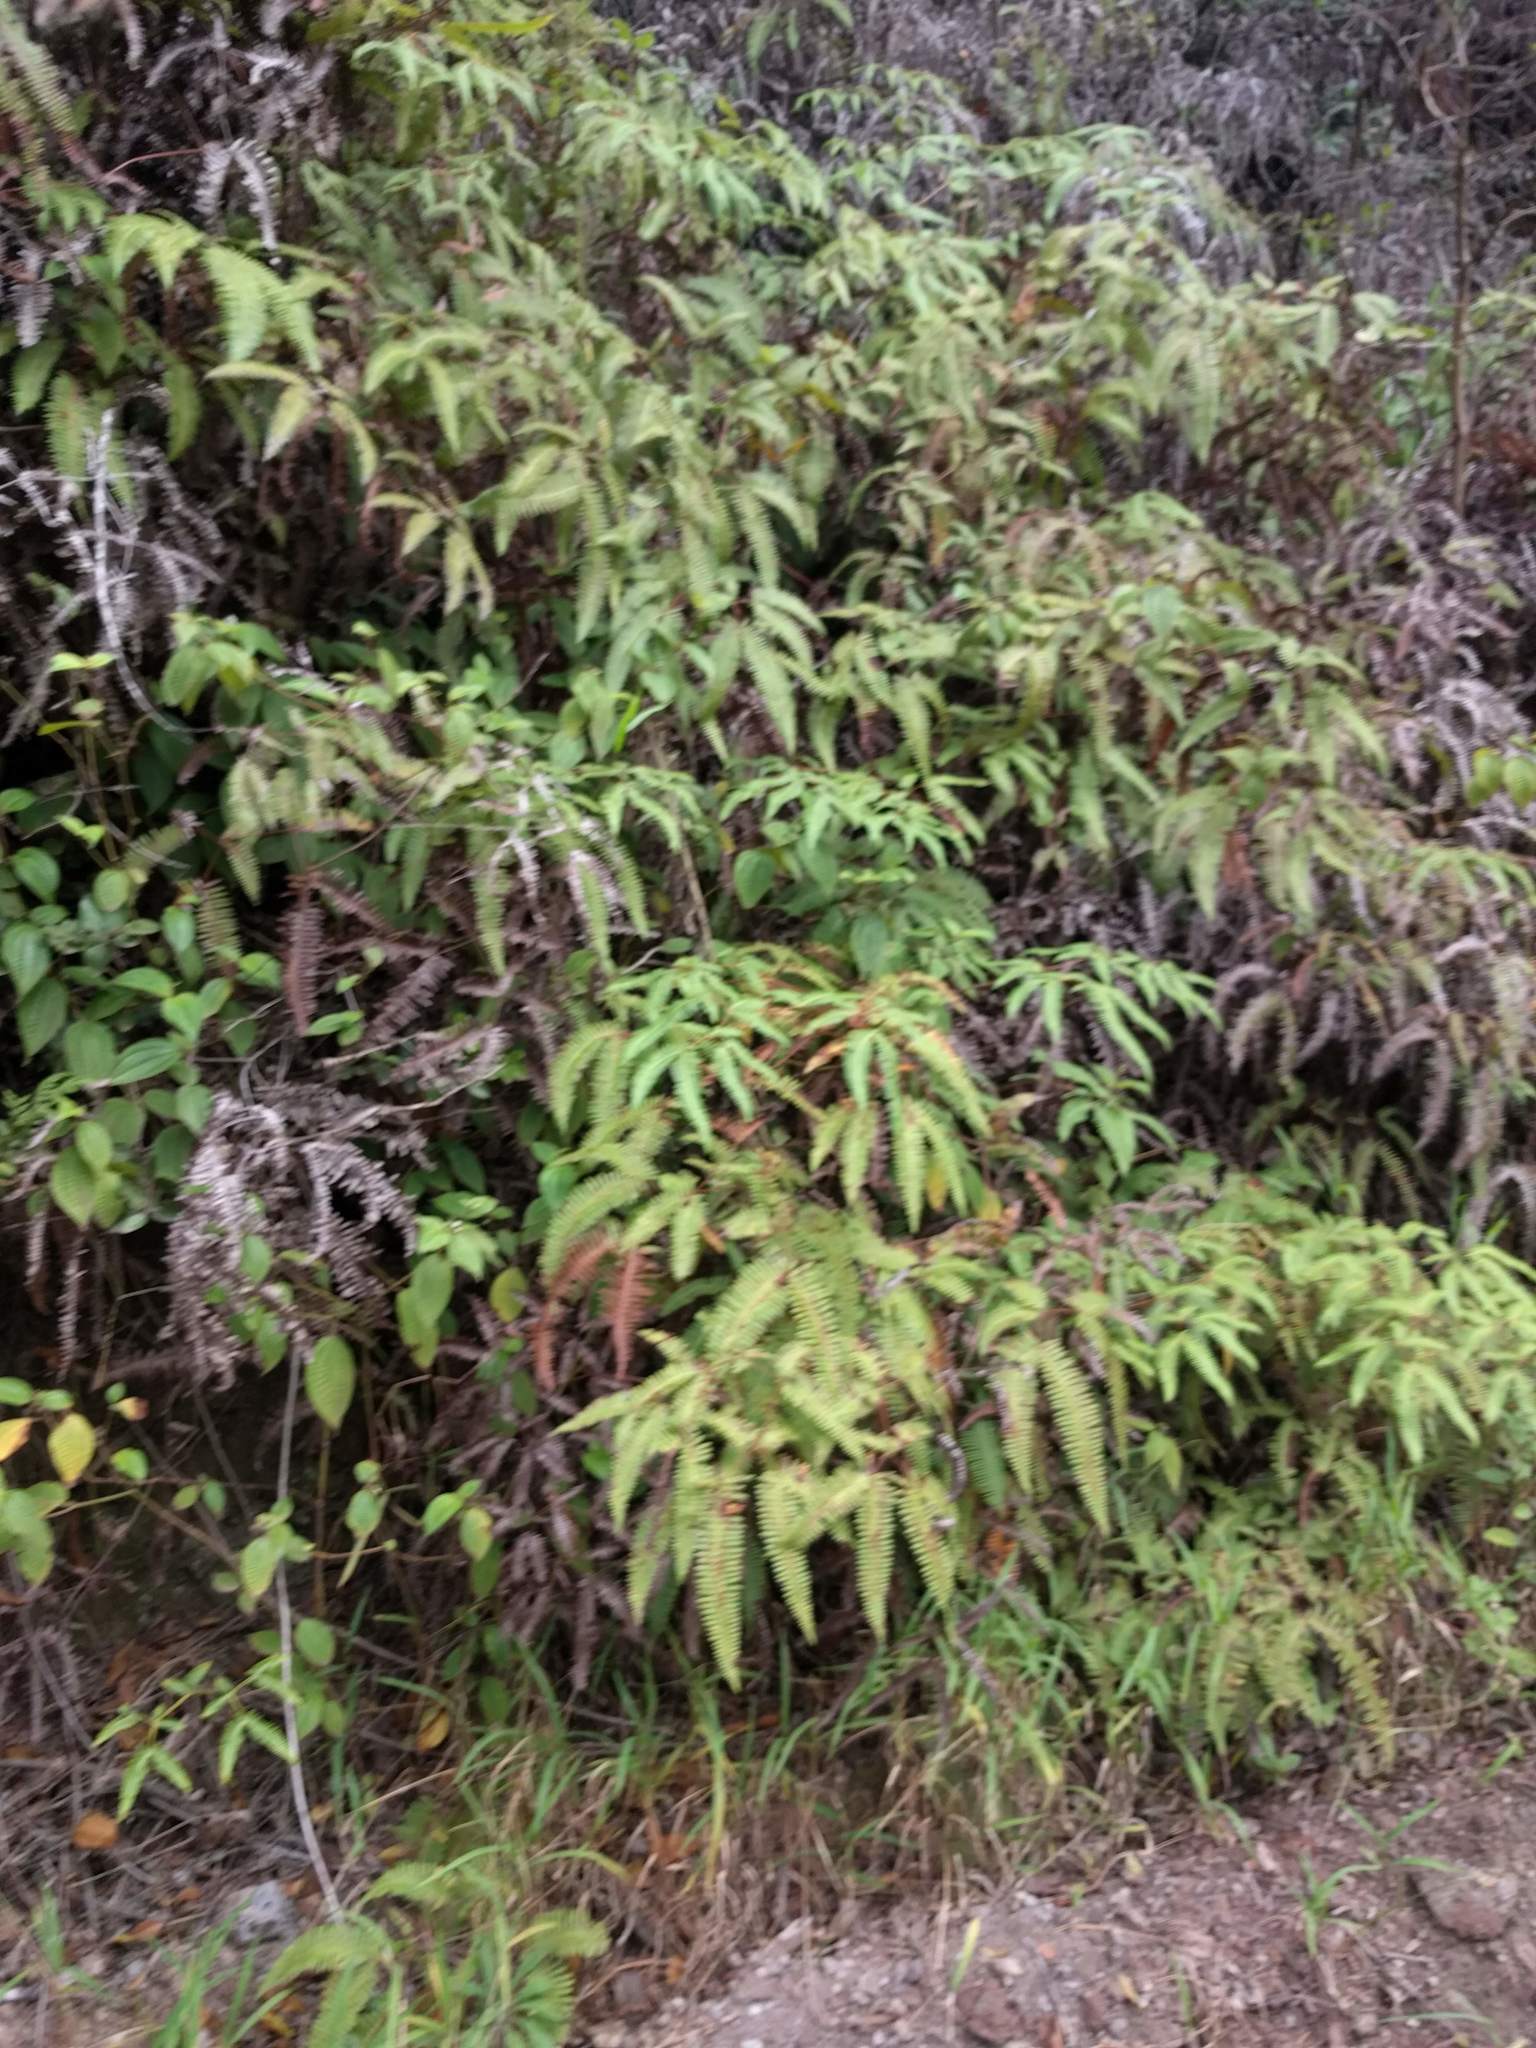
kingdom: Plantae
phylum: Tracheophyta
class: Polypodiopsida
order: Gleicheniales
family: Gleicheniaceae
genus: Dicranopteris
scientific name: Dicranopteris linearis
